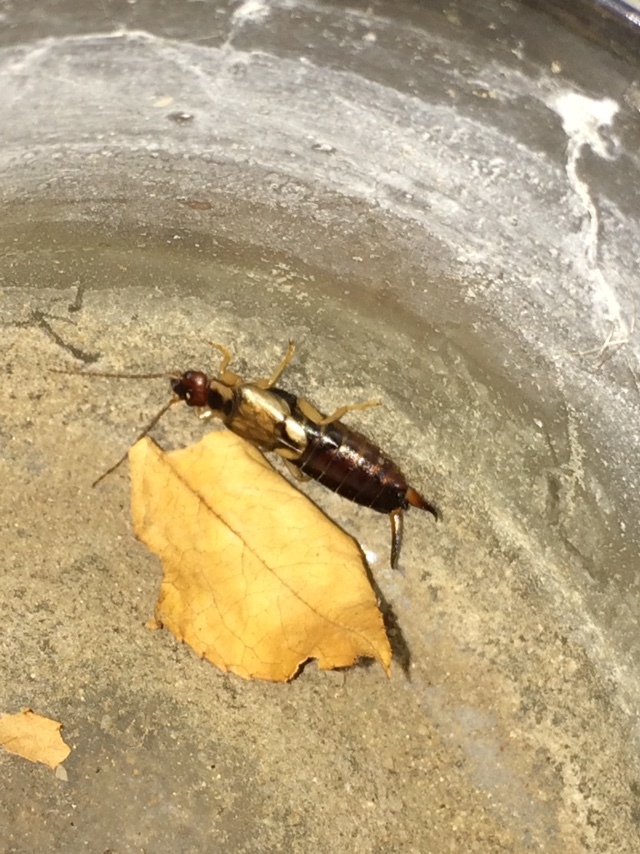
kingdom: Animalia
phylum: Arthropoda
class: Insecta
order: Dermaptera
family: Forficulidae
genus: Forficula
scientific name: Forficula
